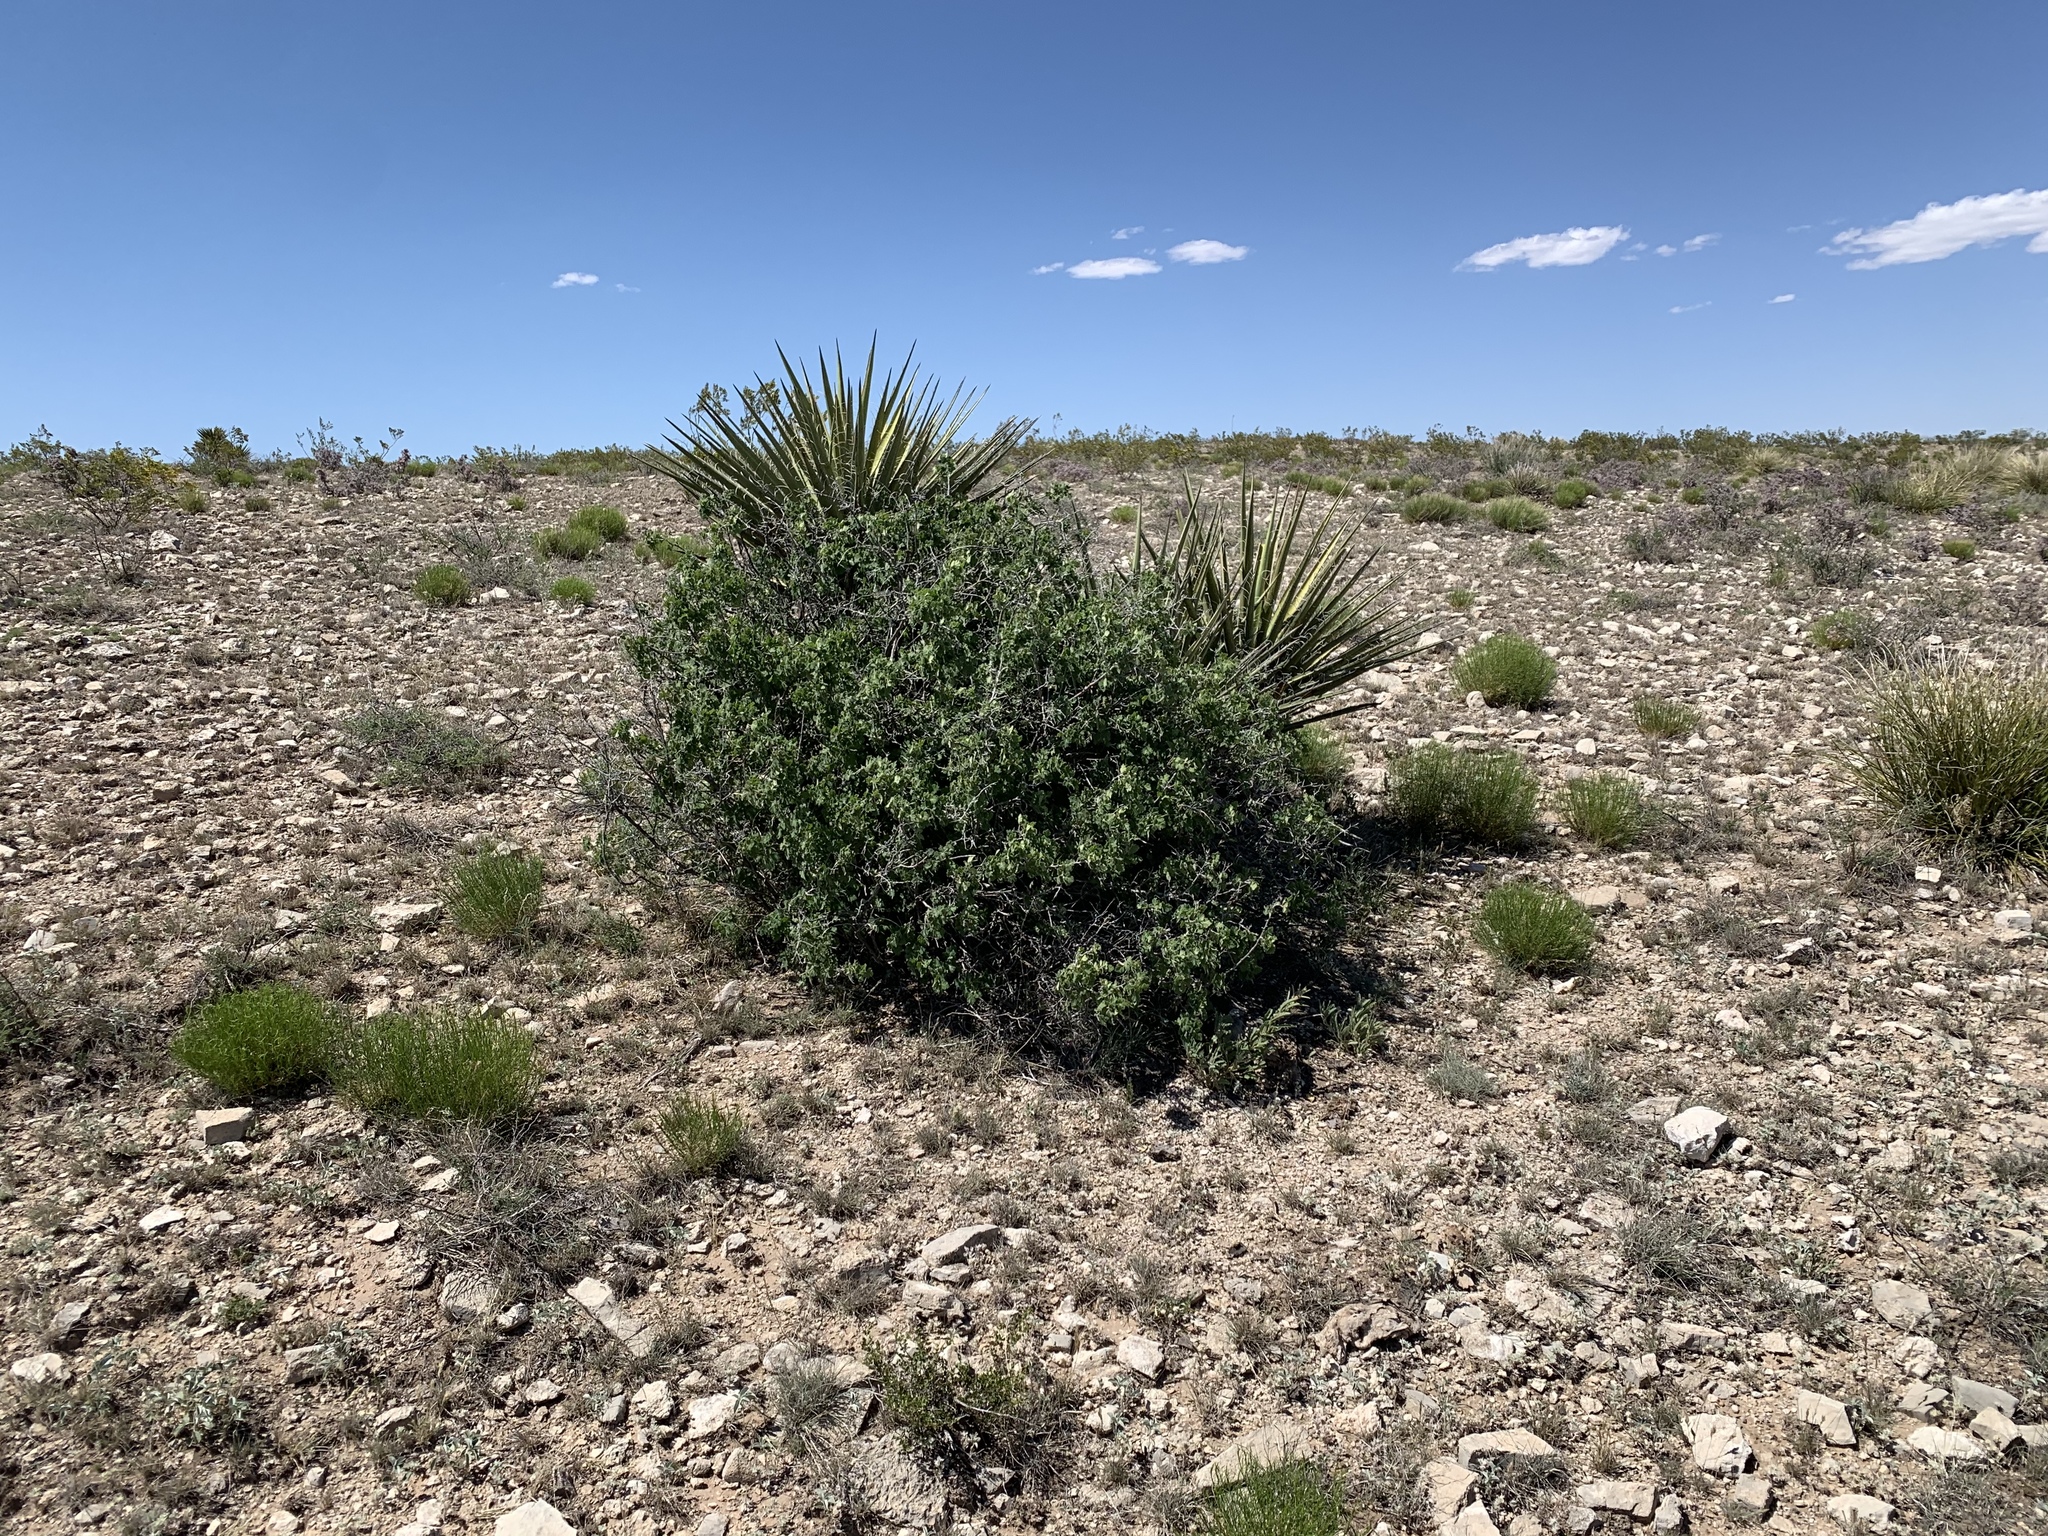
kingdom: Plantae
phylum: Tracheophyta
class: Magnoliopsida
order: Sapindales
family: Anacardiaceae
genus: Rhus
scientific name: Rhus aromatica
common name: Aromatic sumac
